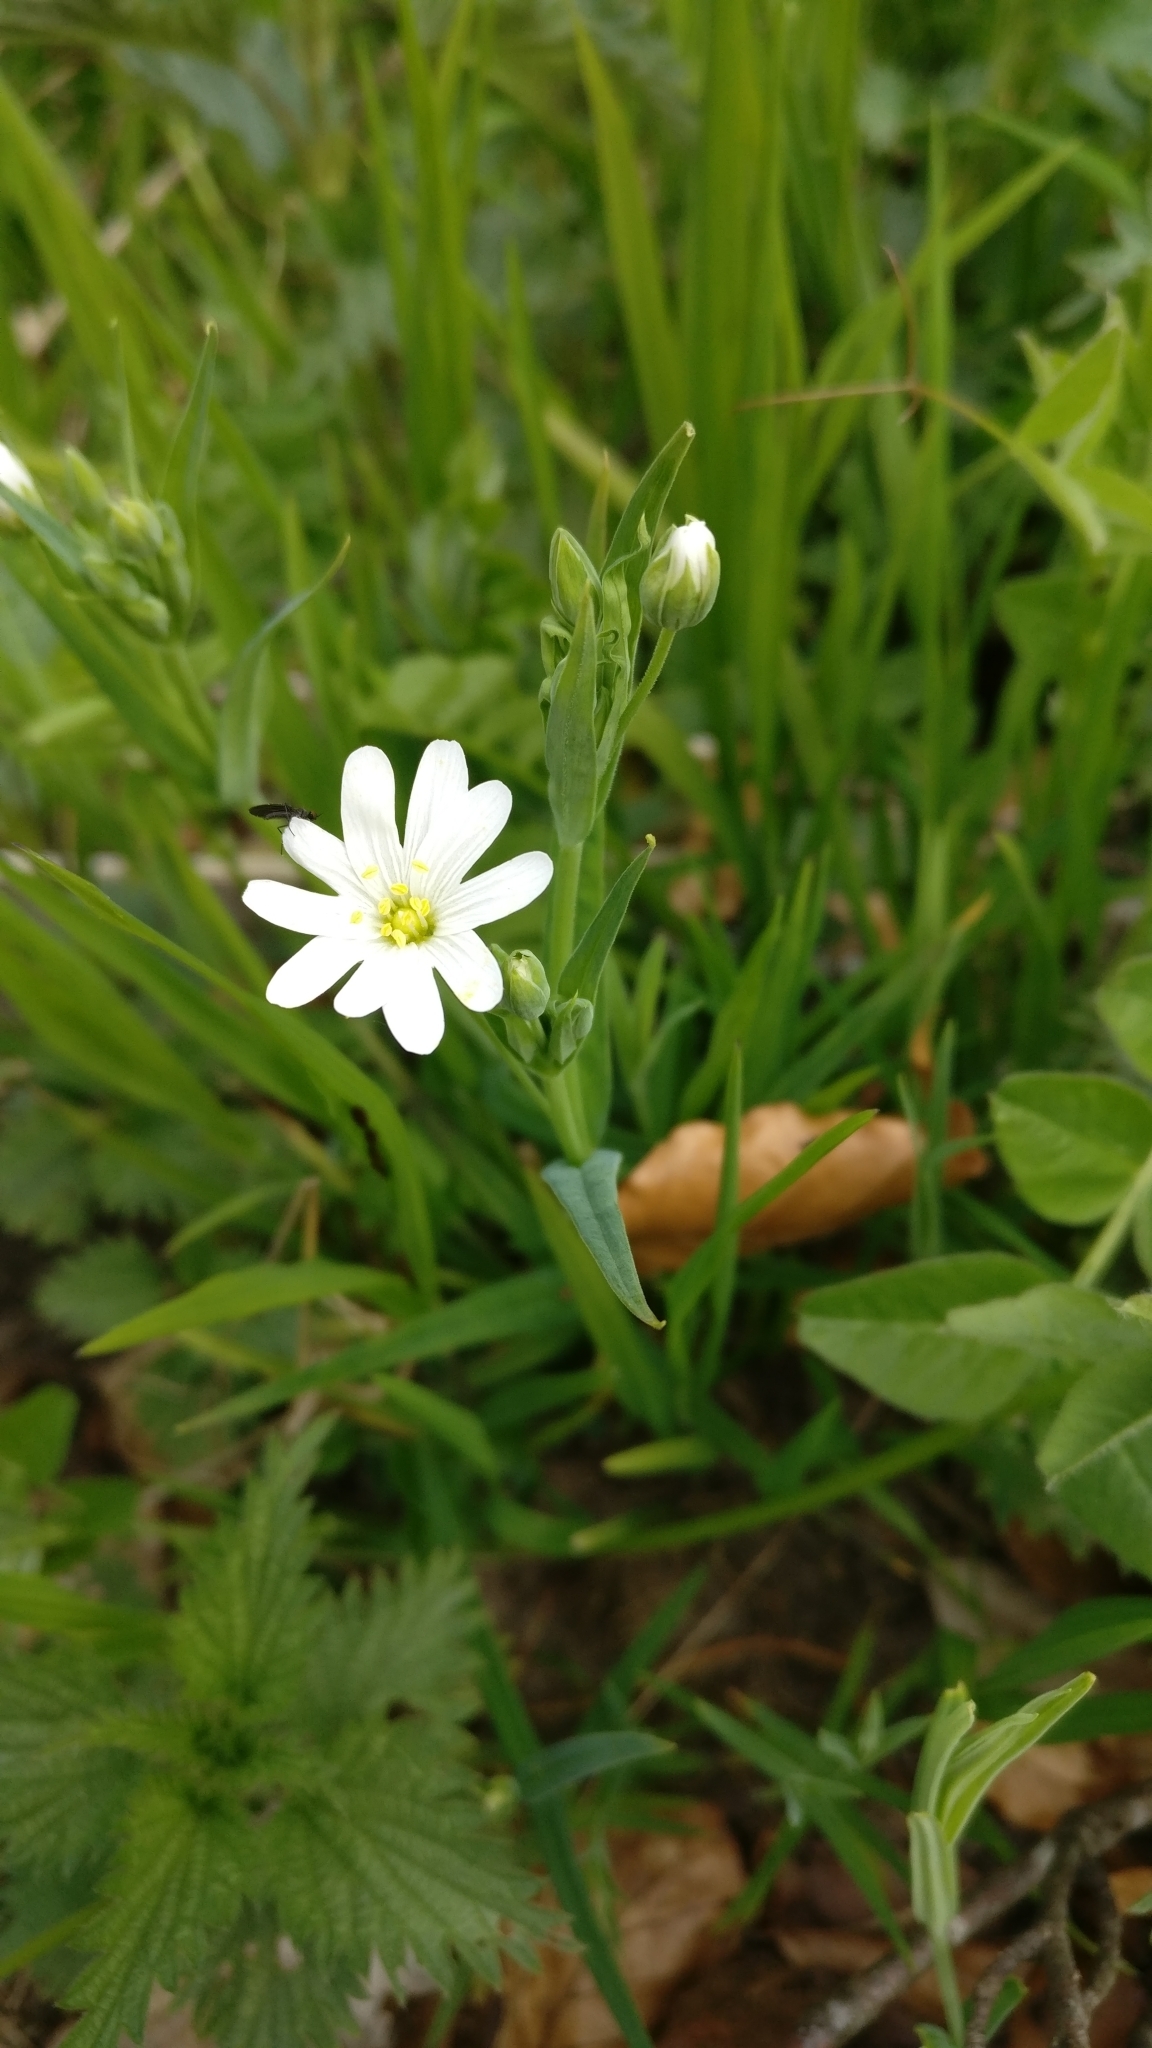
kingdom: Plantae
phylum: Tracheophyta
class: Magnoliopsida
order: Caryophyllales
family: Caryophyllaceae
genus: Rabelera
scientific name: Rabelera holostea
